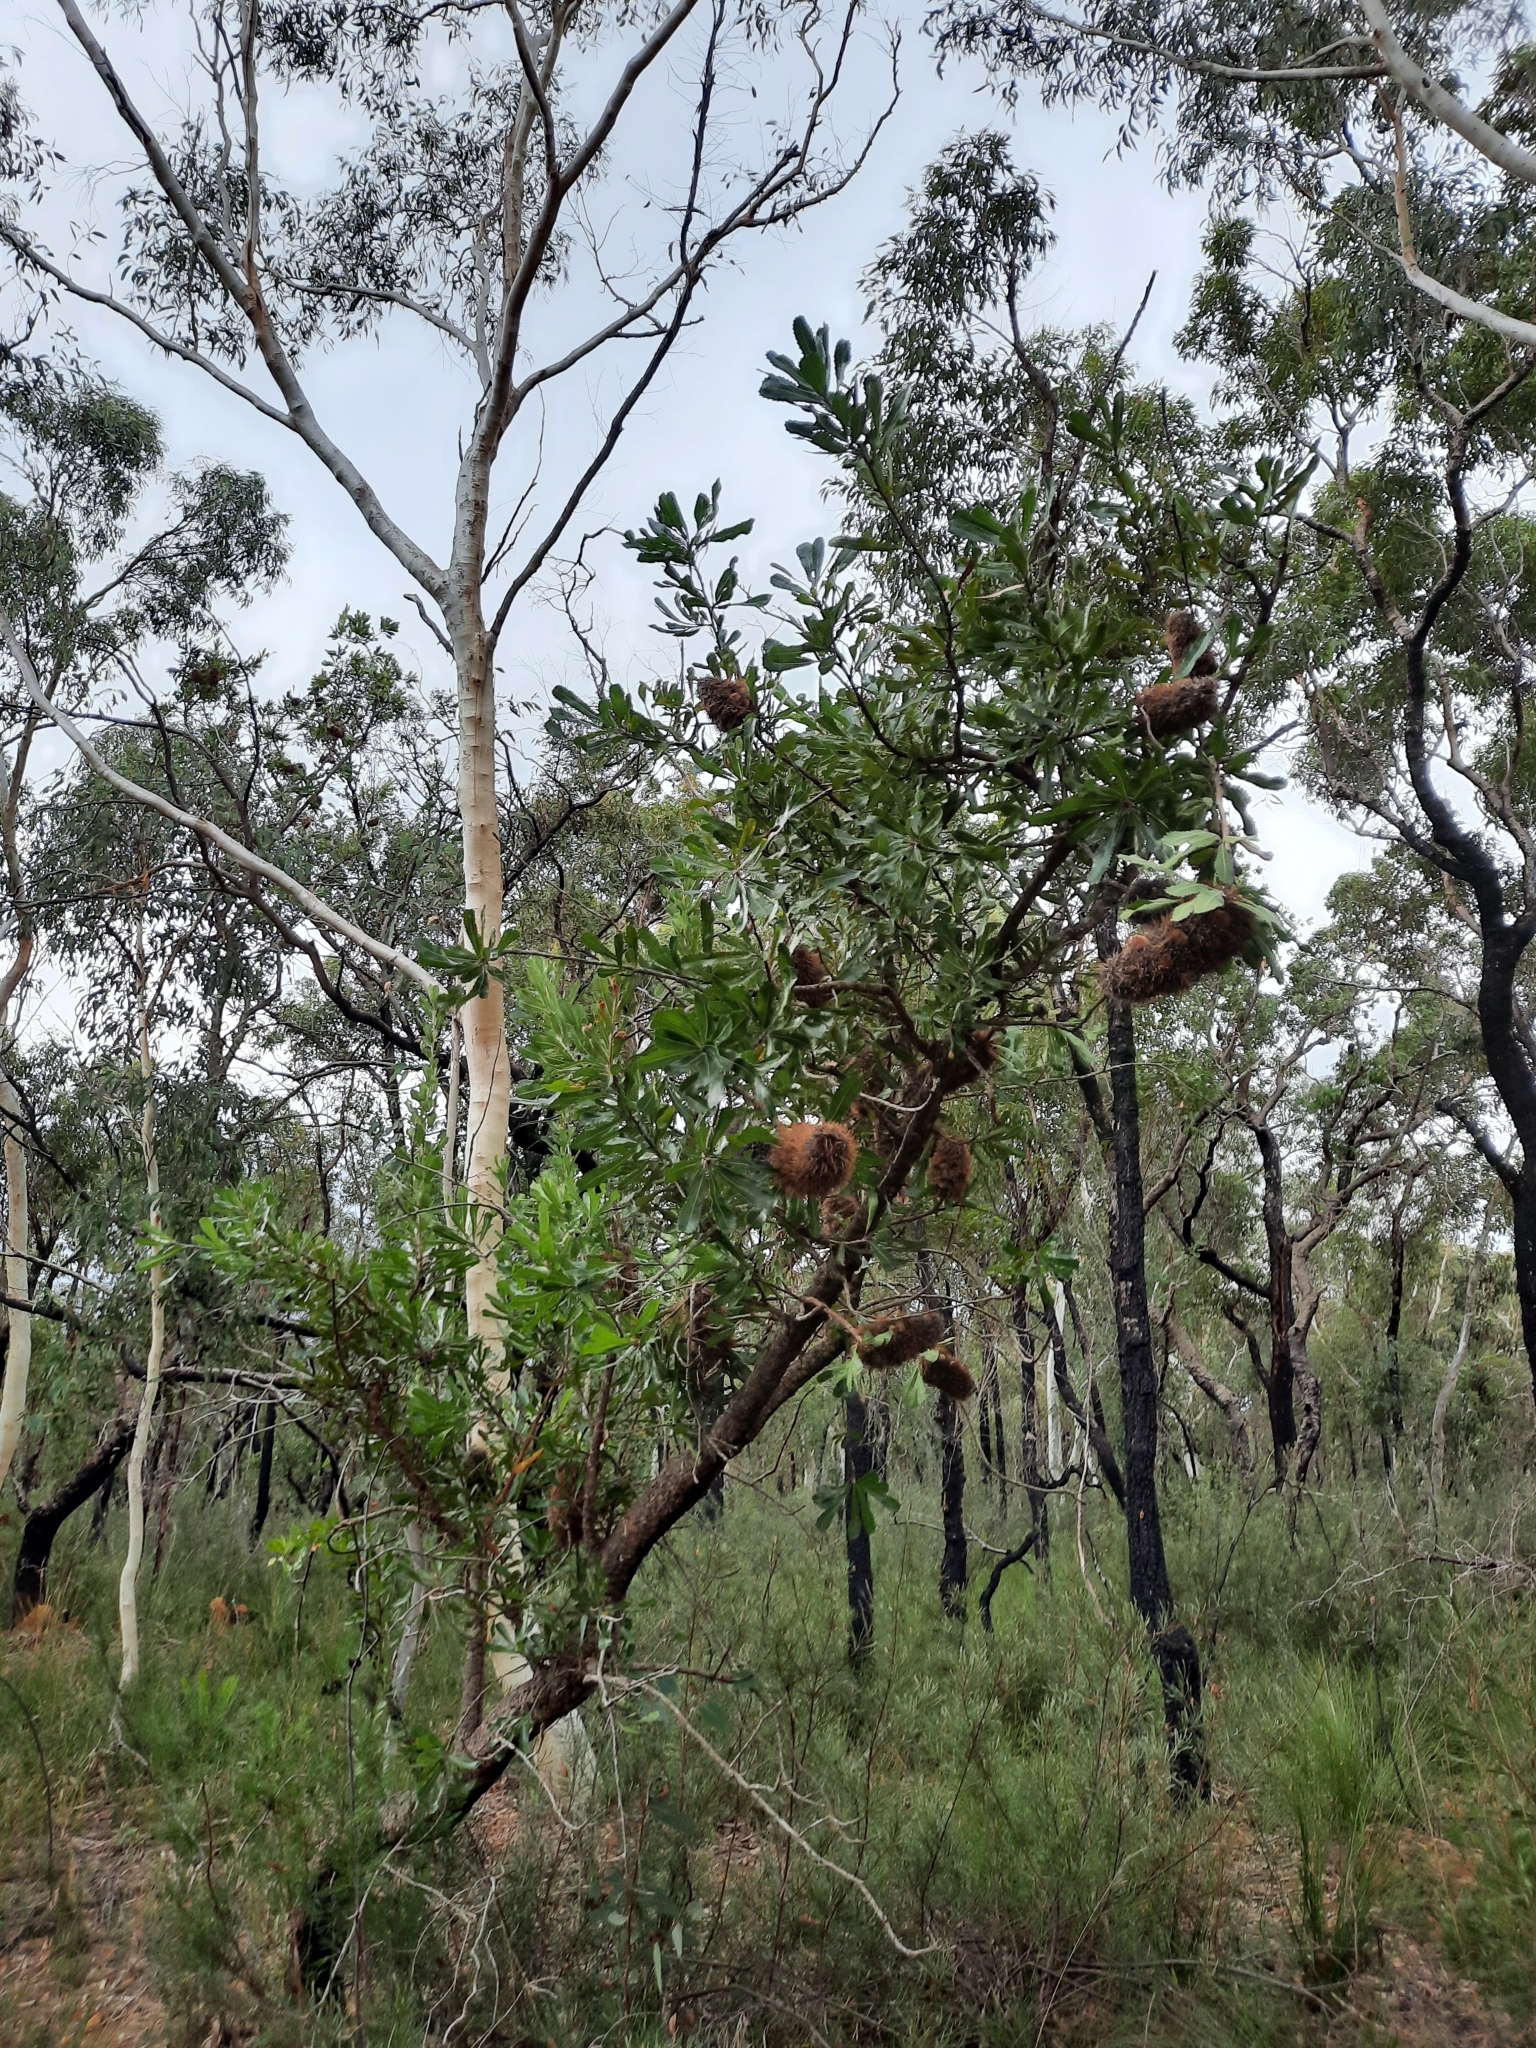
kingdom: Plantae
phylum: Tracheophyta
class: Magnoliopsida
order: Proteales
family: Proteaceae
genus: Banksia
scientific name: Banksia serrata
